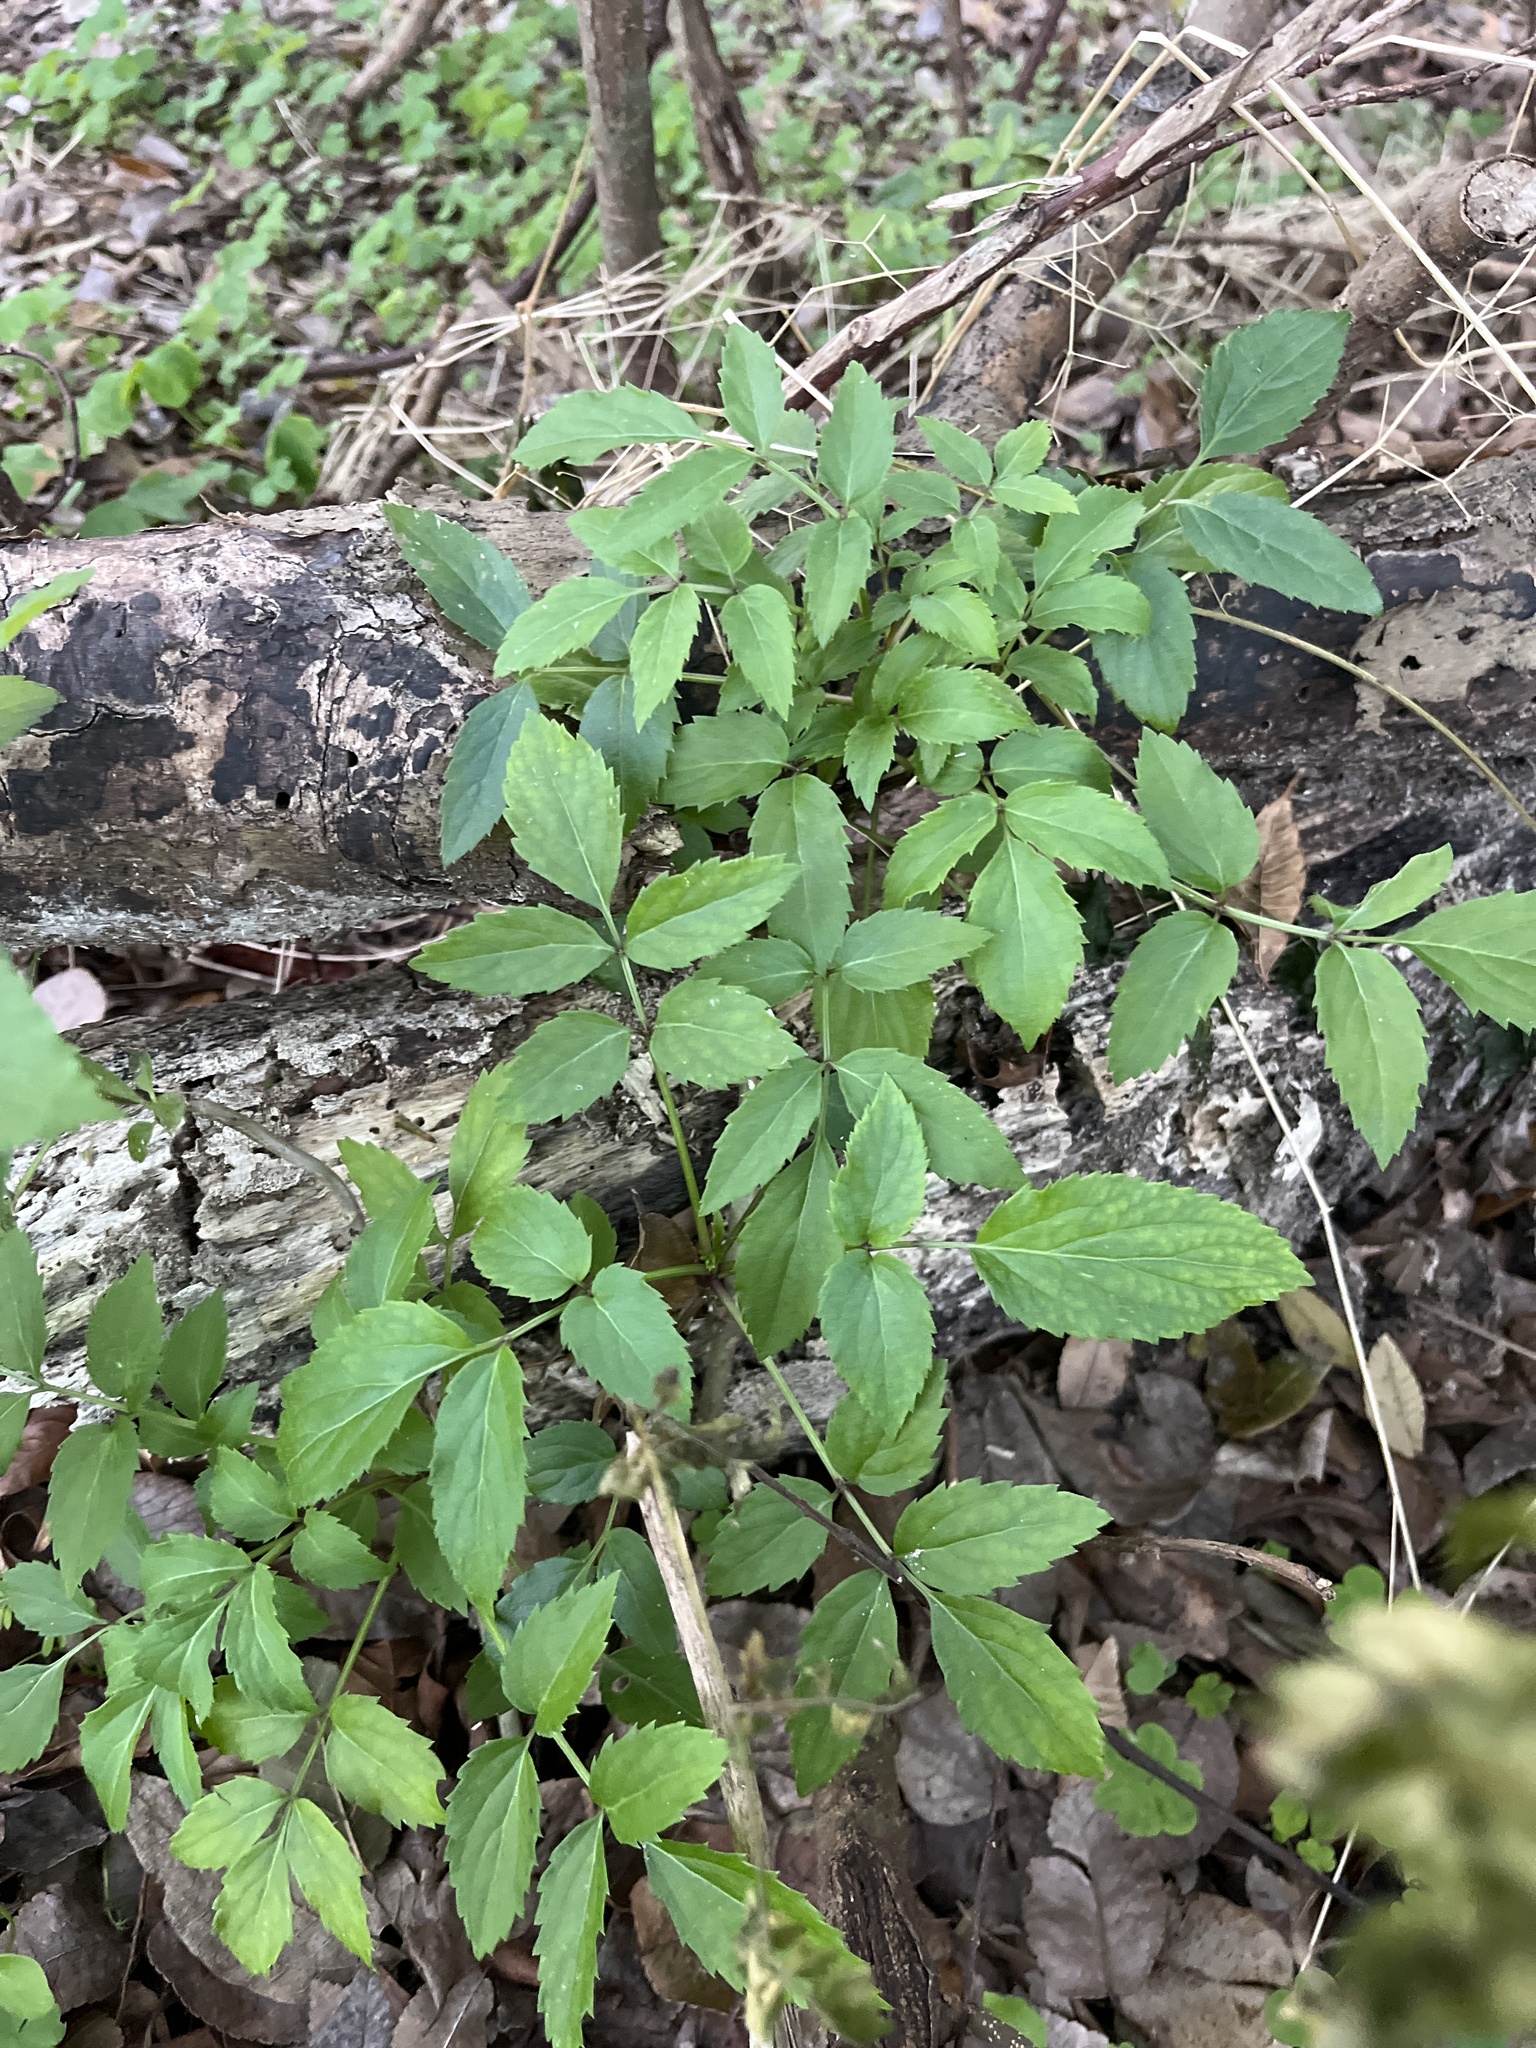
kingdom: Plantae
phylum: Tracheophyta
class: Magnoliopsida
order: Dipsacales
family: Viburnaceae
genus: Sambucus
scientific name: Sambucus canadensis
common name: American elder
